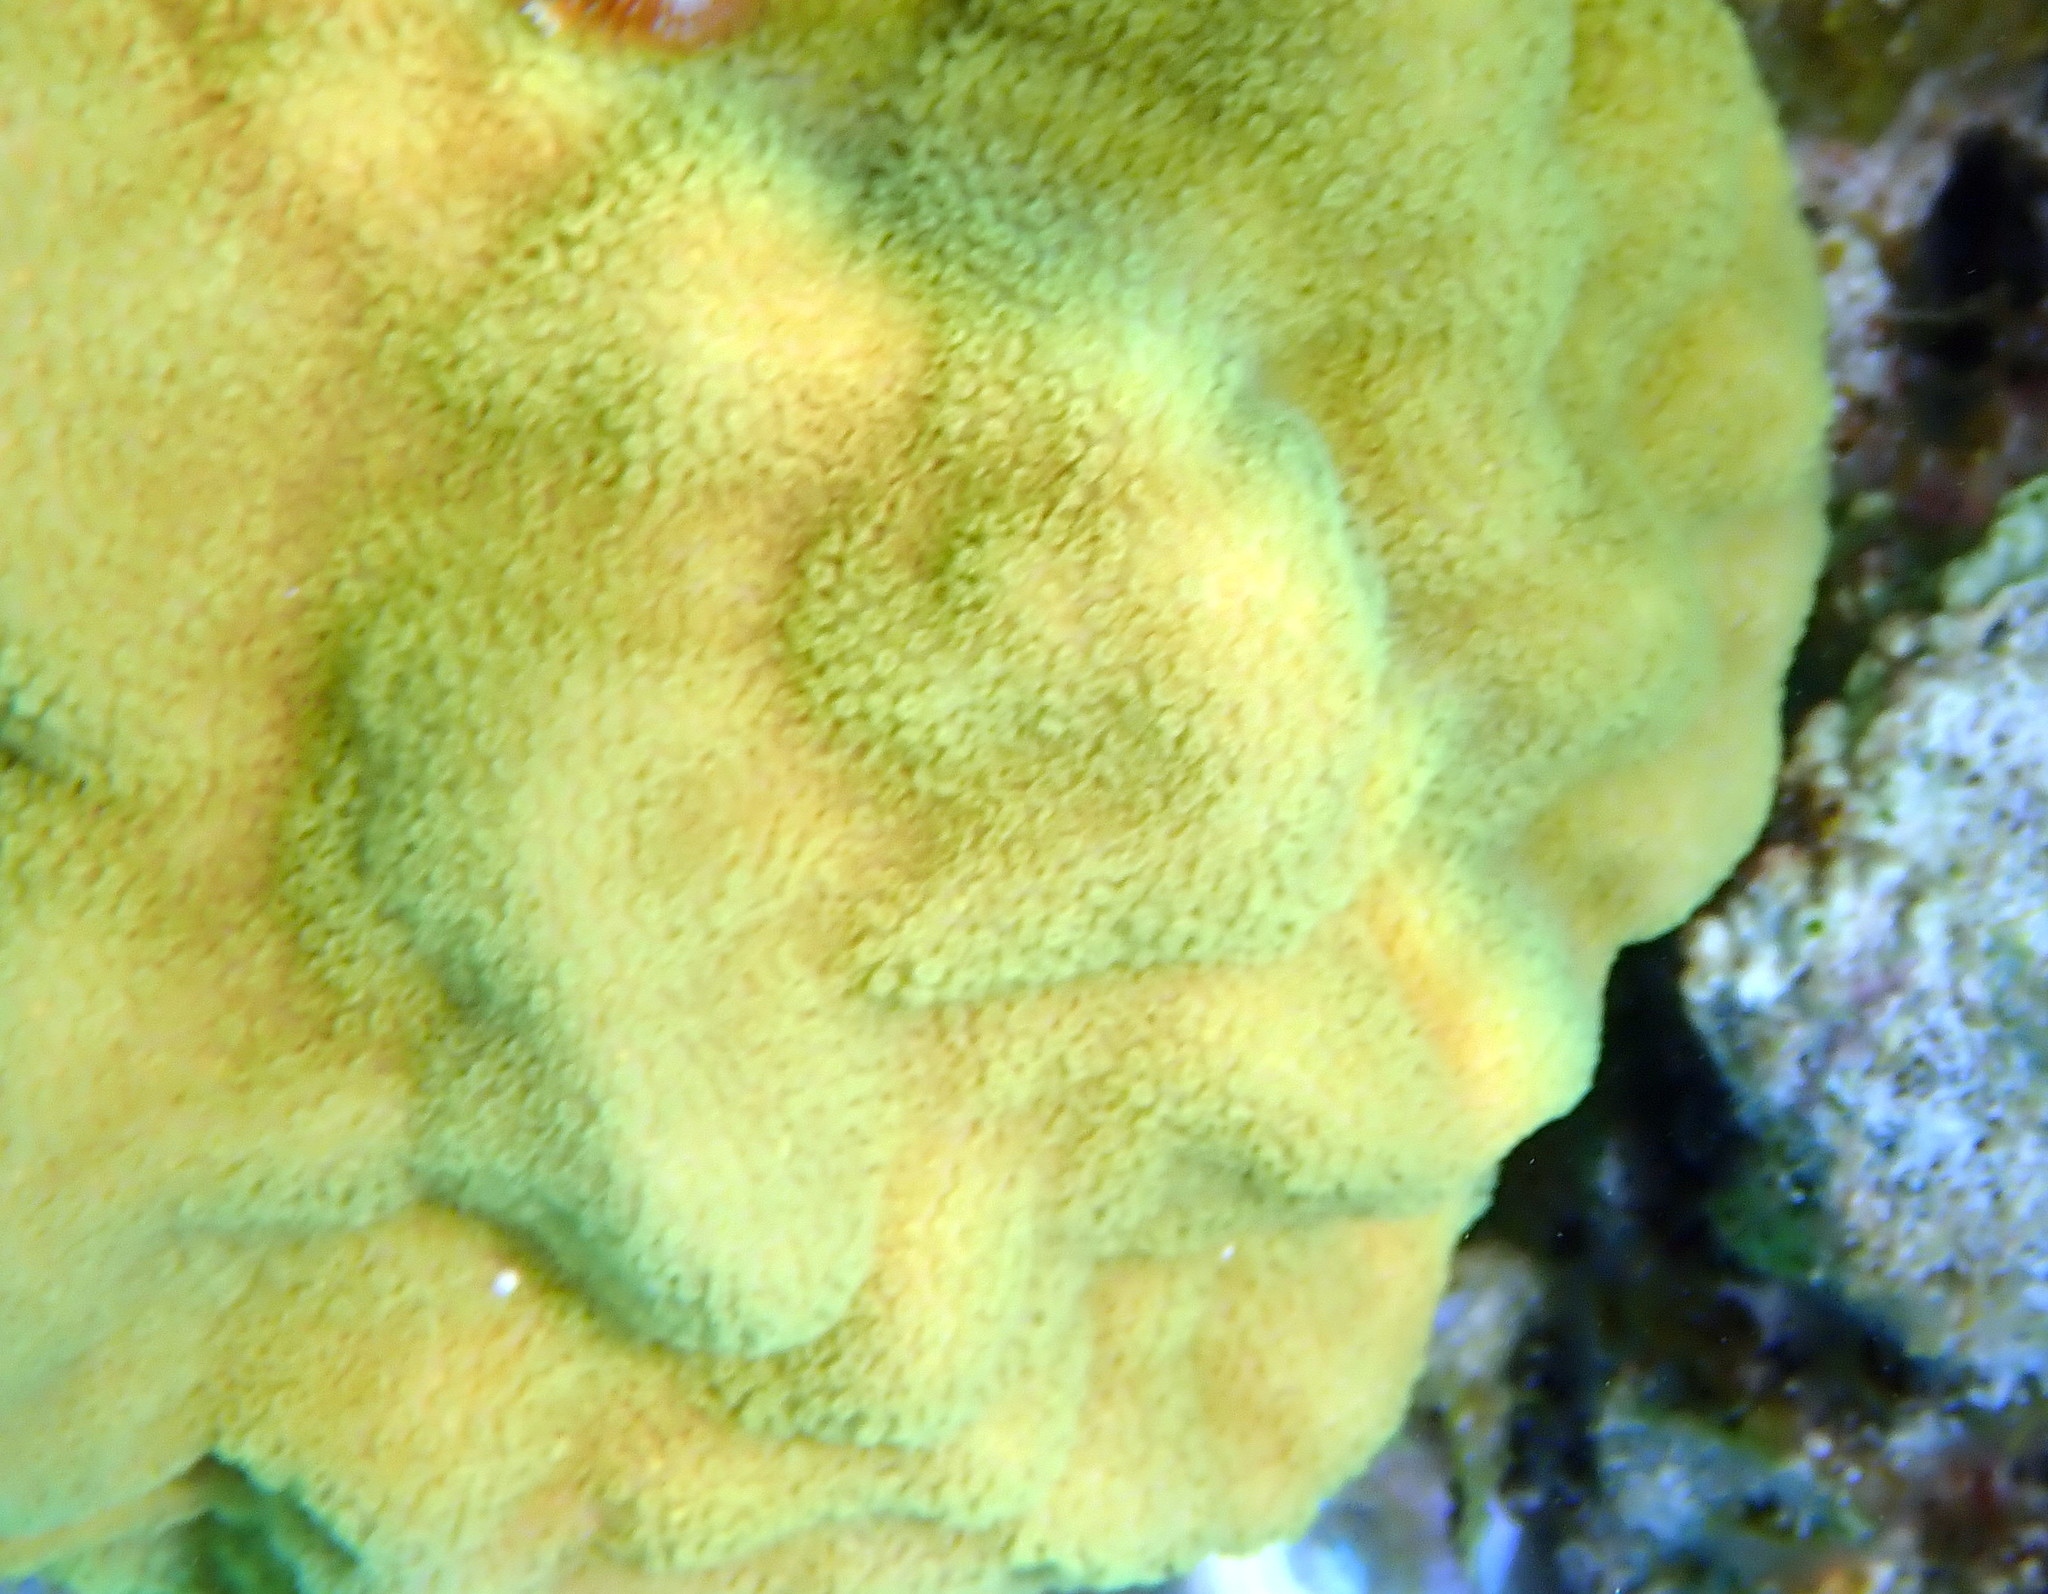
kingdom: Animalia
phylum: Cnidaria
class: Anthozoa
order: Scleractinia
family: Poritidae
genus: Porites
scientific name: Porites astreoides
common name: Mustard hill coral
